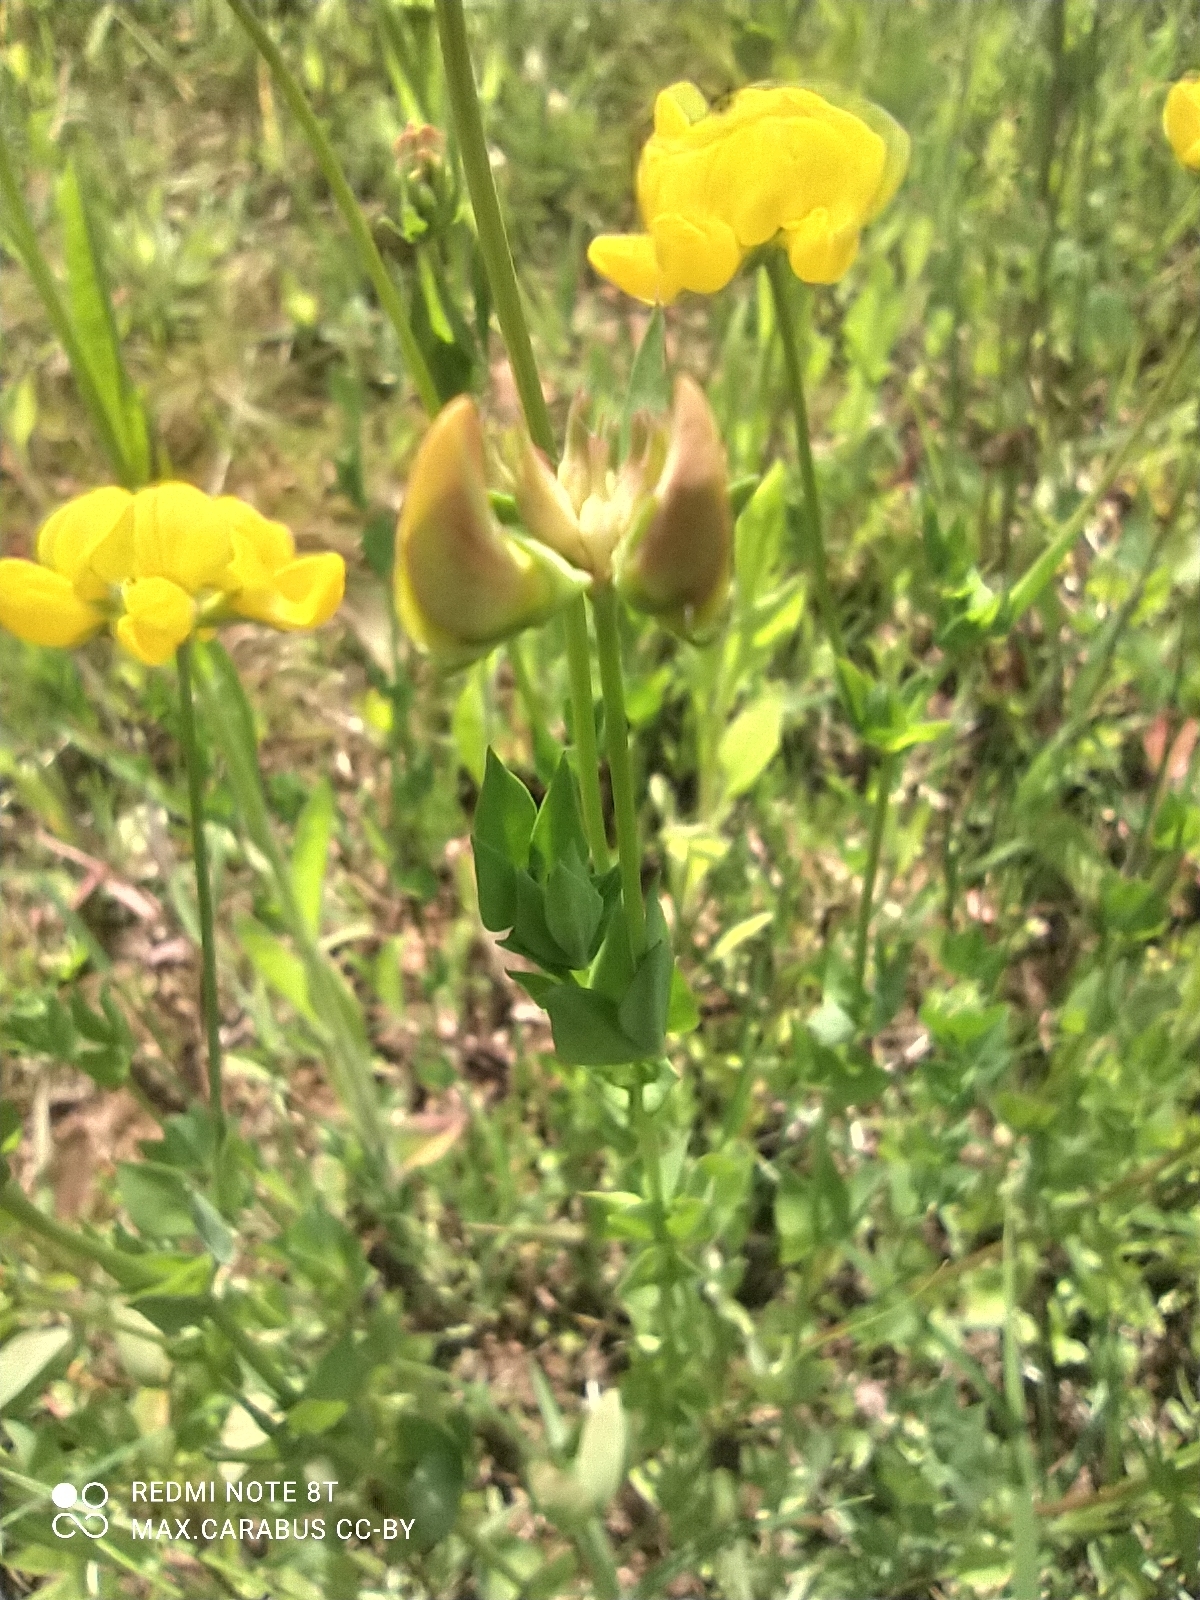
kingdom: Plantae
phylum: Tracheophyta
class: Magnoliopsida
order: Fabales
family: Fabaceae
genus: Lotus
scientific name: Lotus corniculatus
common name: Common bird's-foot-trefoil
